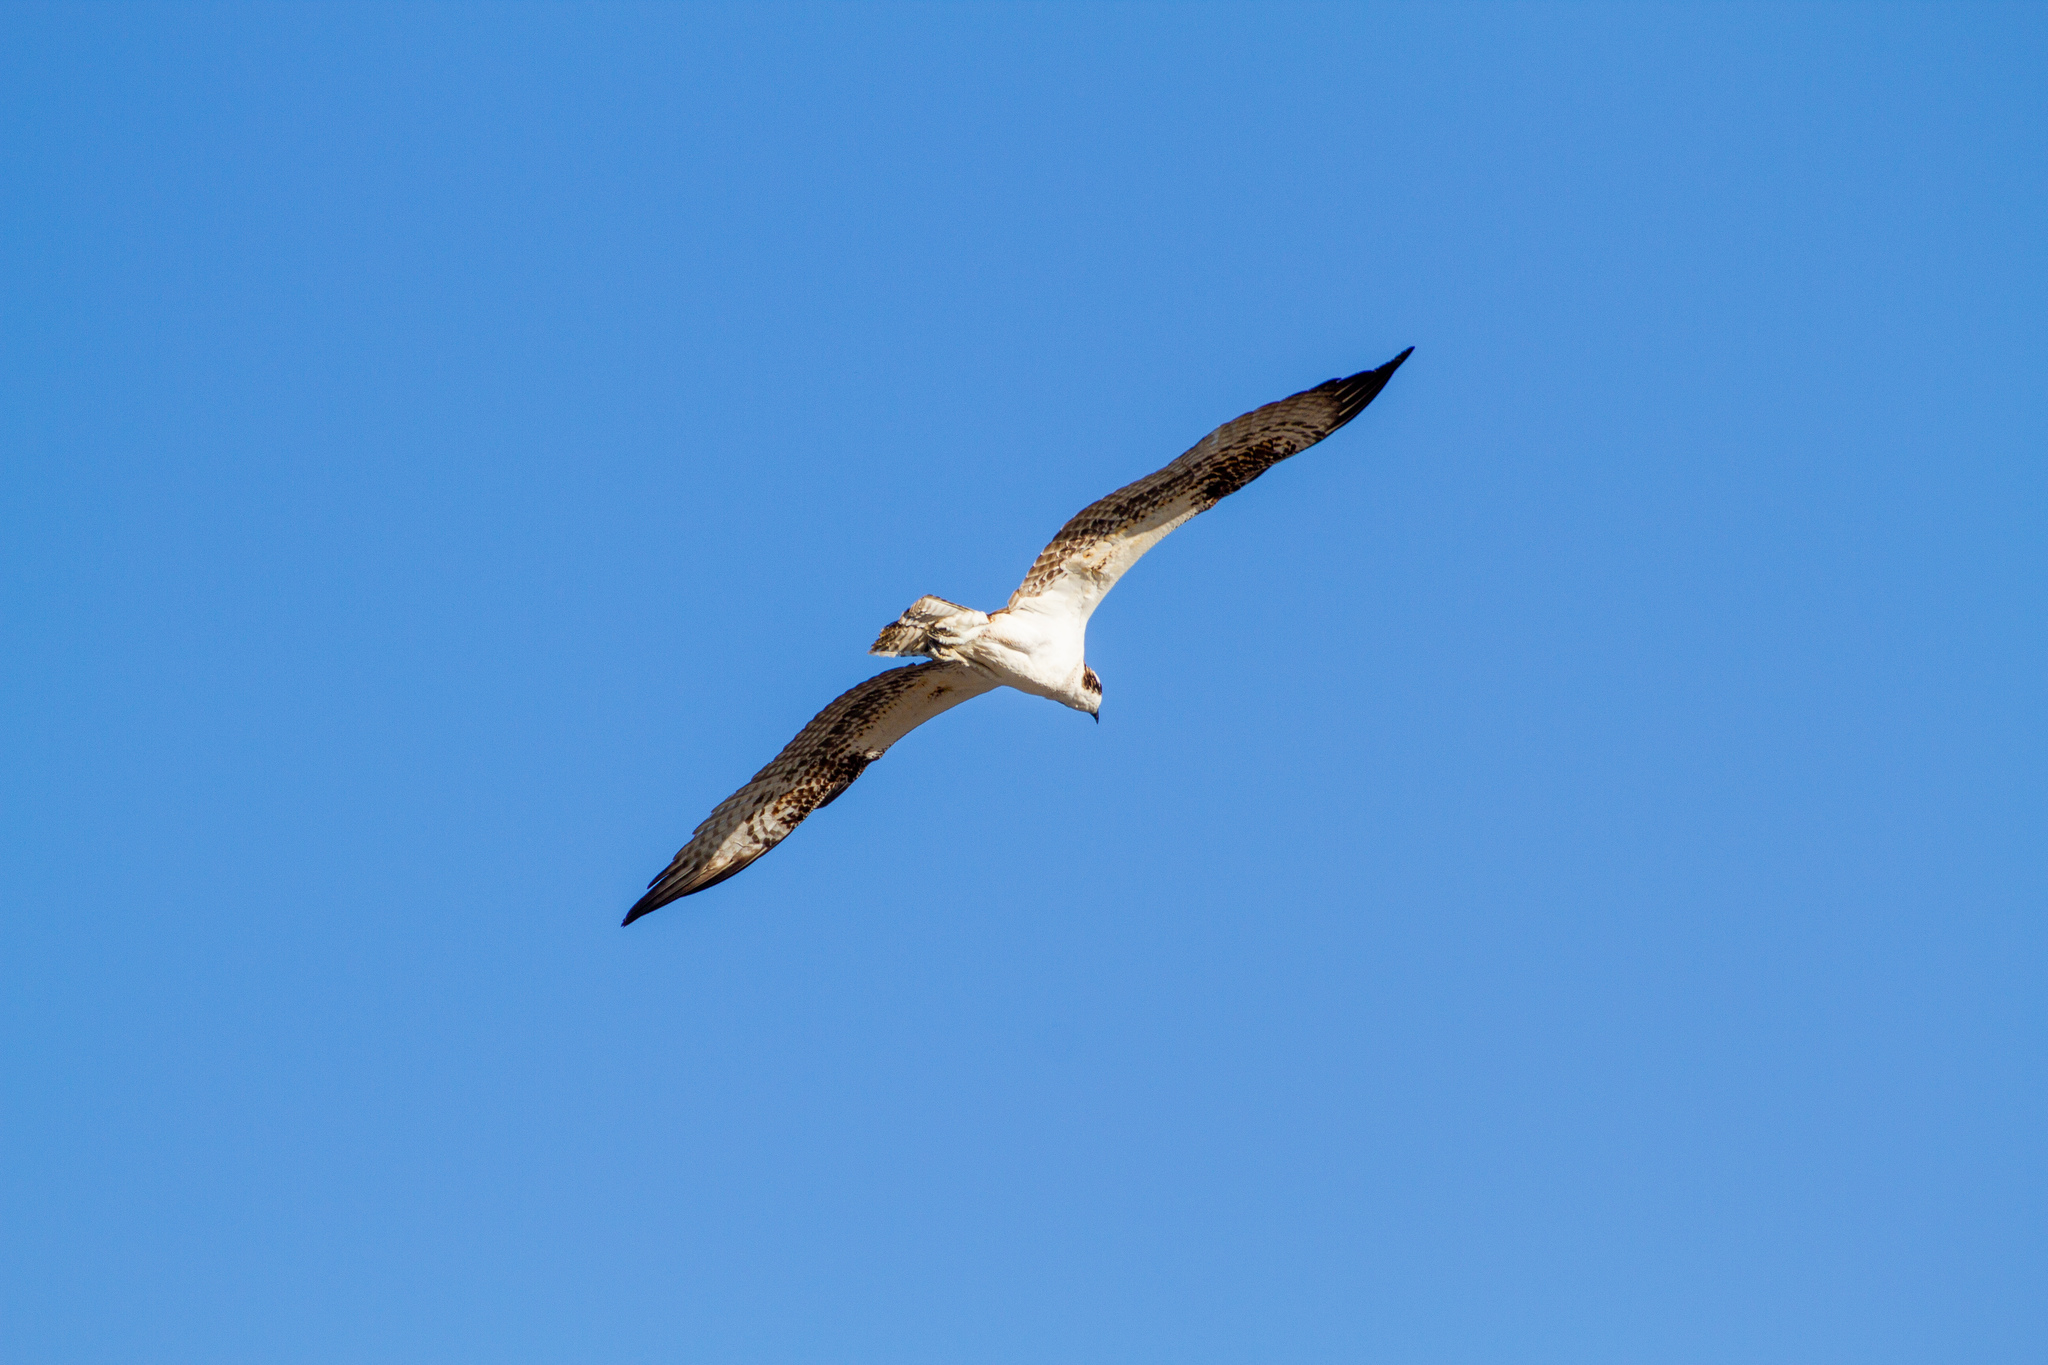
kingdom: Animalia
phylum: Chordata
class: Aves
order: Accipitriformes
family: Pandionidae
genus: Pandion
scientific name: Pandion haliaetus
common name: Osprey
